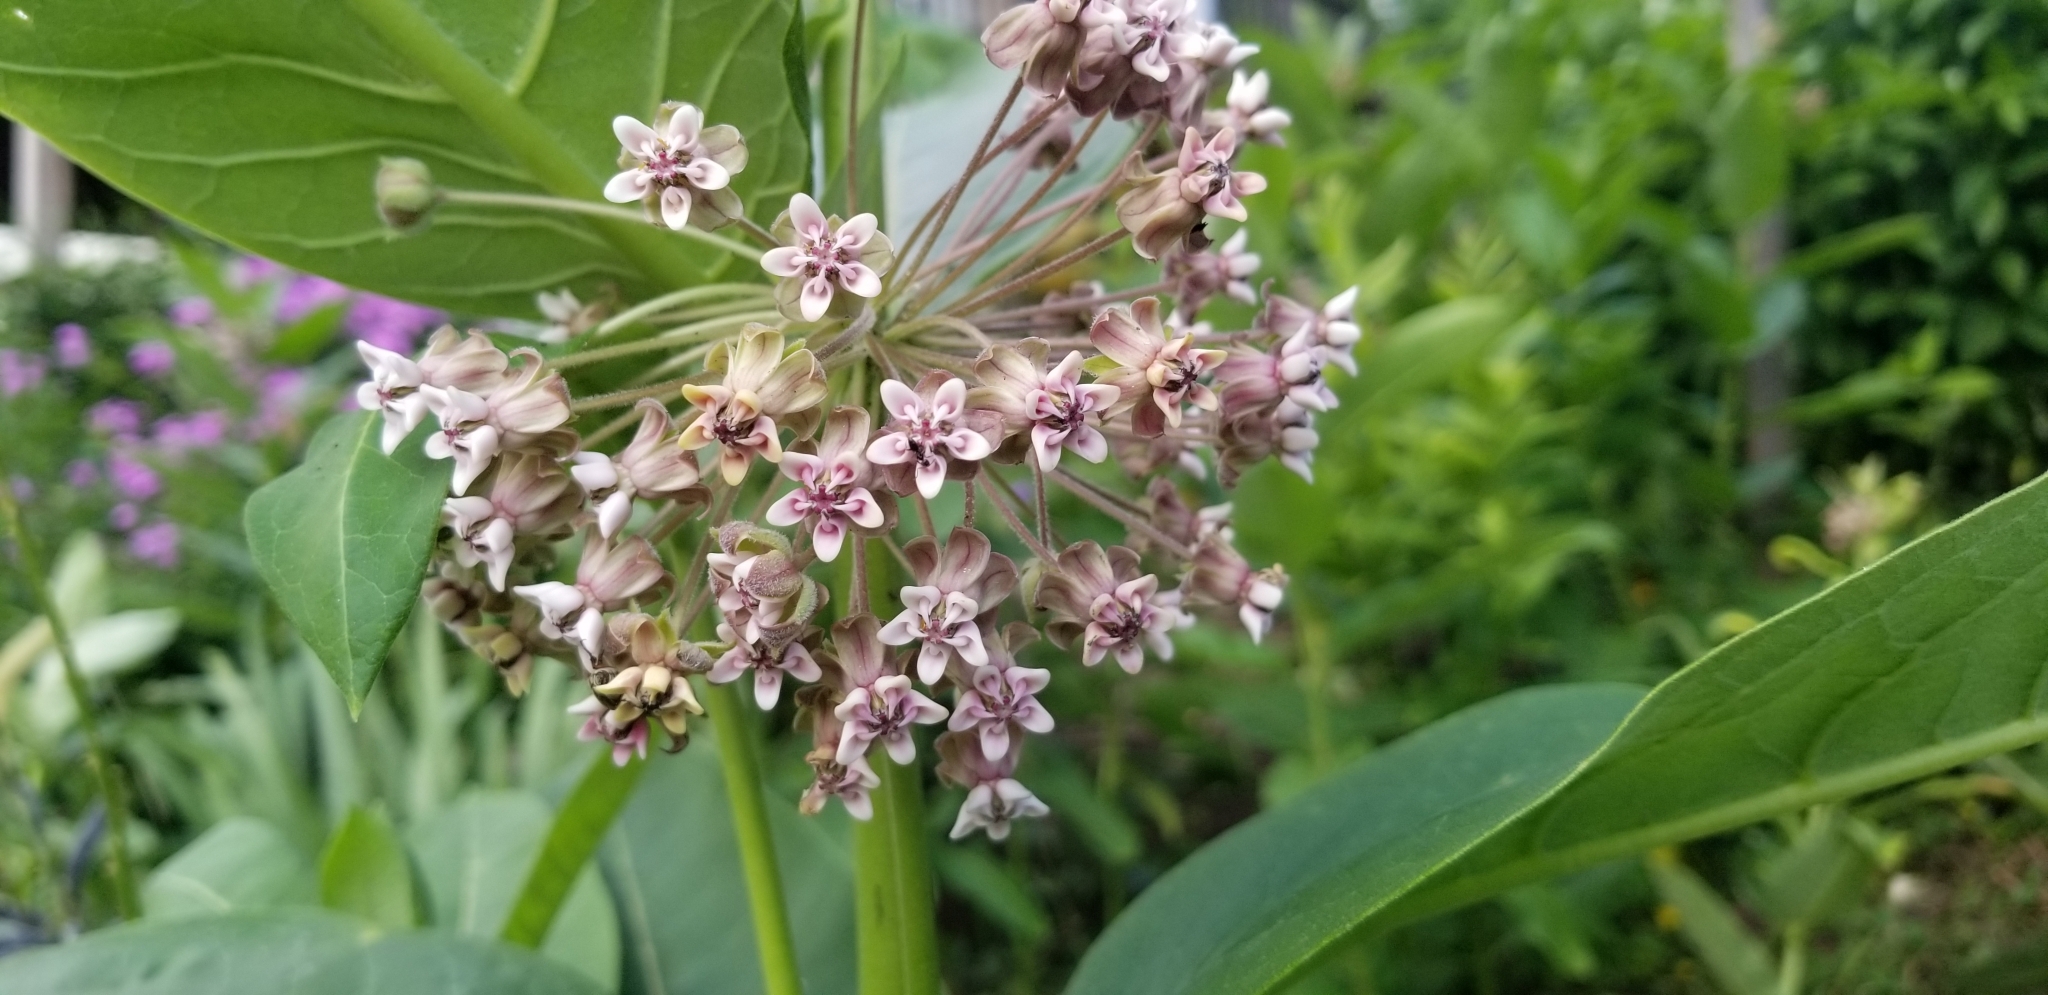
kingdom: Plantae
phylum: Tracheophyta
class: Magnoliopsida
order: Gentianales
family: Apocynaceae
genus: Asclepias
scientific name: Asclepias syriaca
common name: Common milkweed
